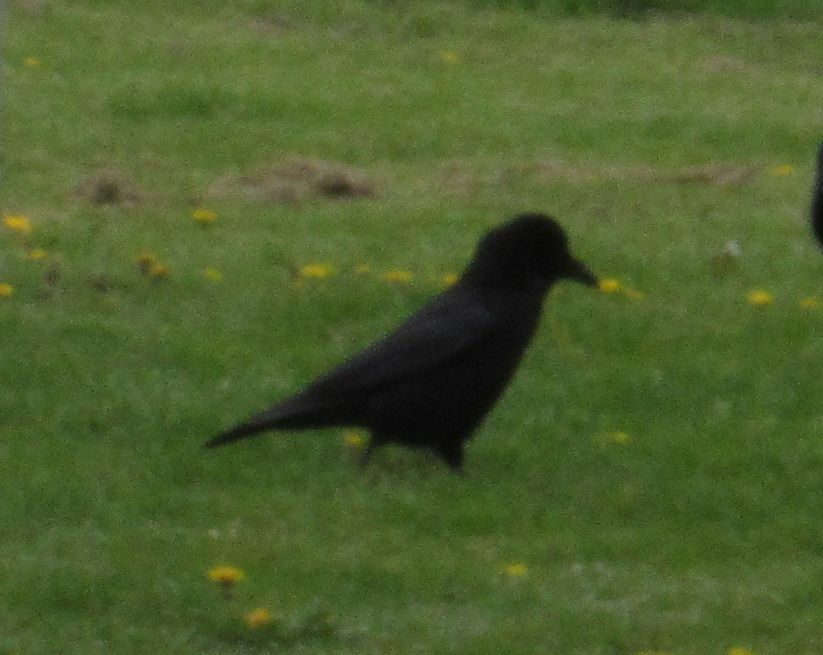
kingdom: Animalia
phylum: Chordata
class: Aves
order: Passeriformes
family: Corvidae
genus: Corvus
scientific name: Corvus corone
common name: Carrion crow
